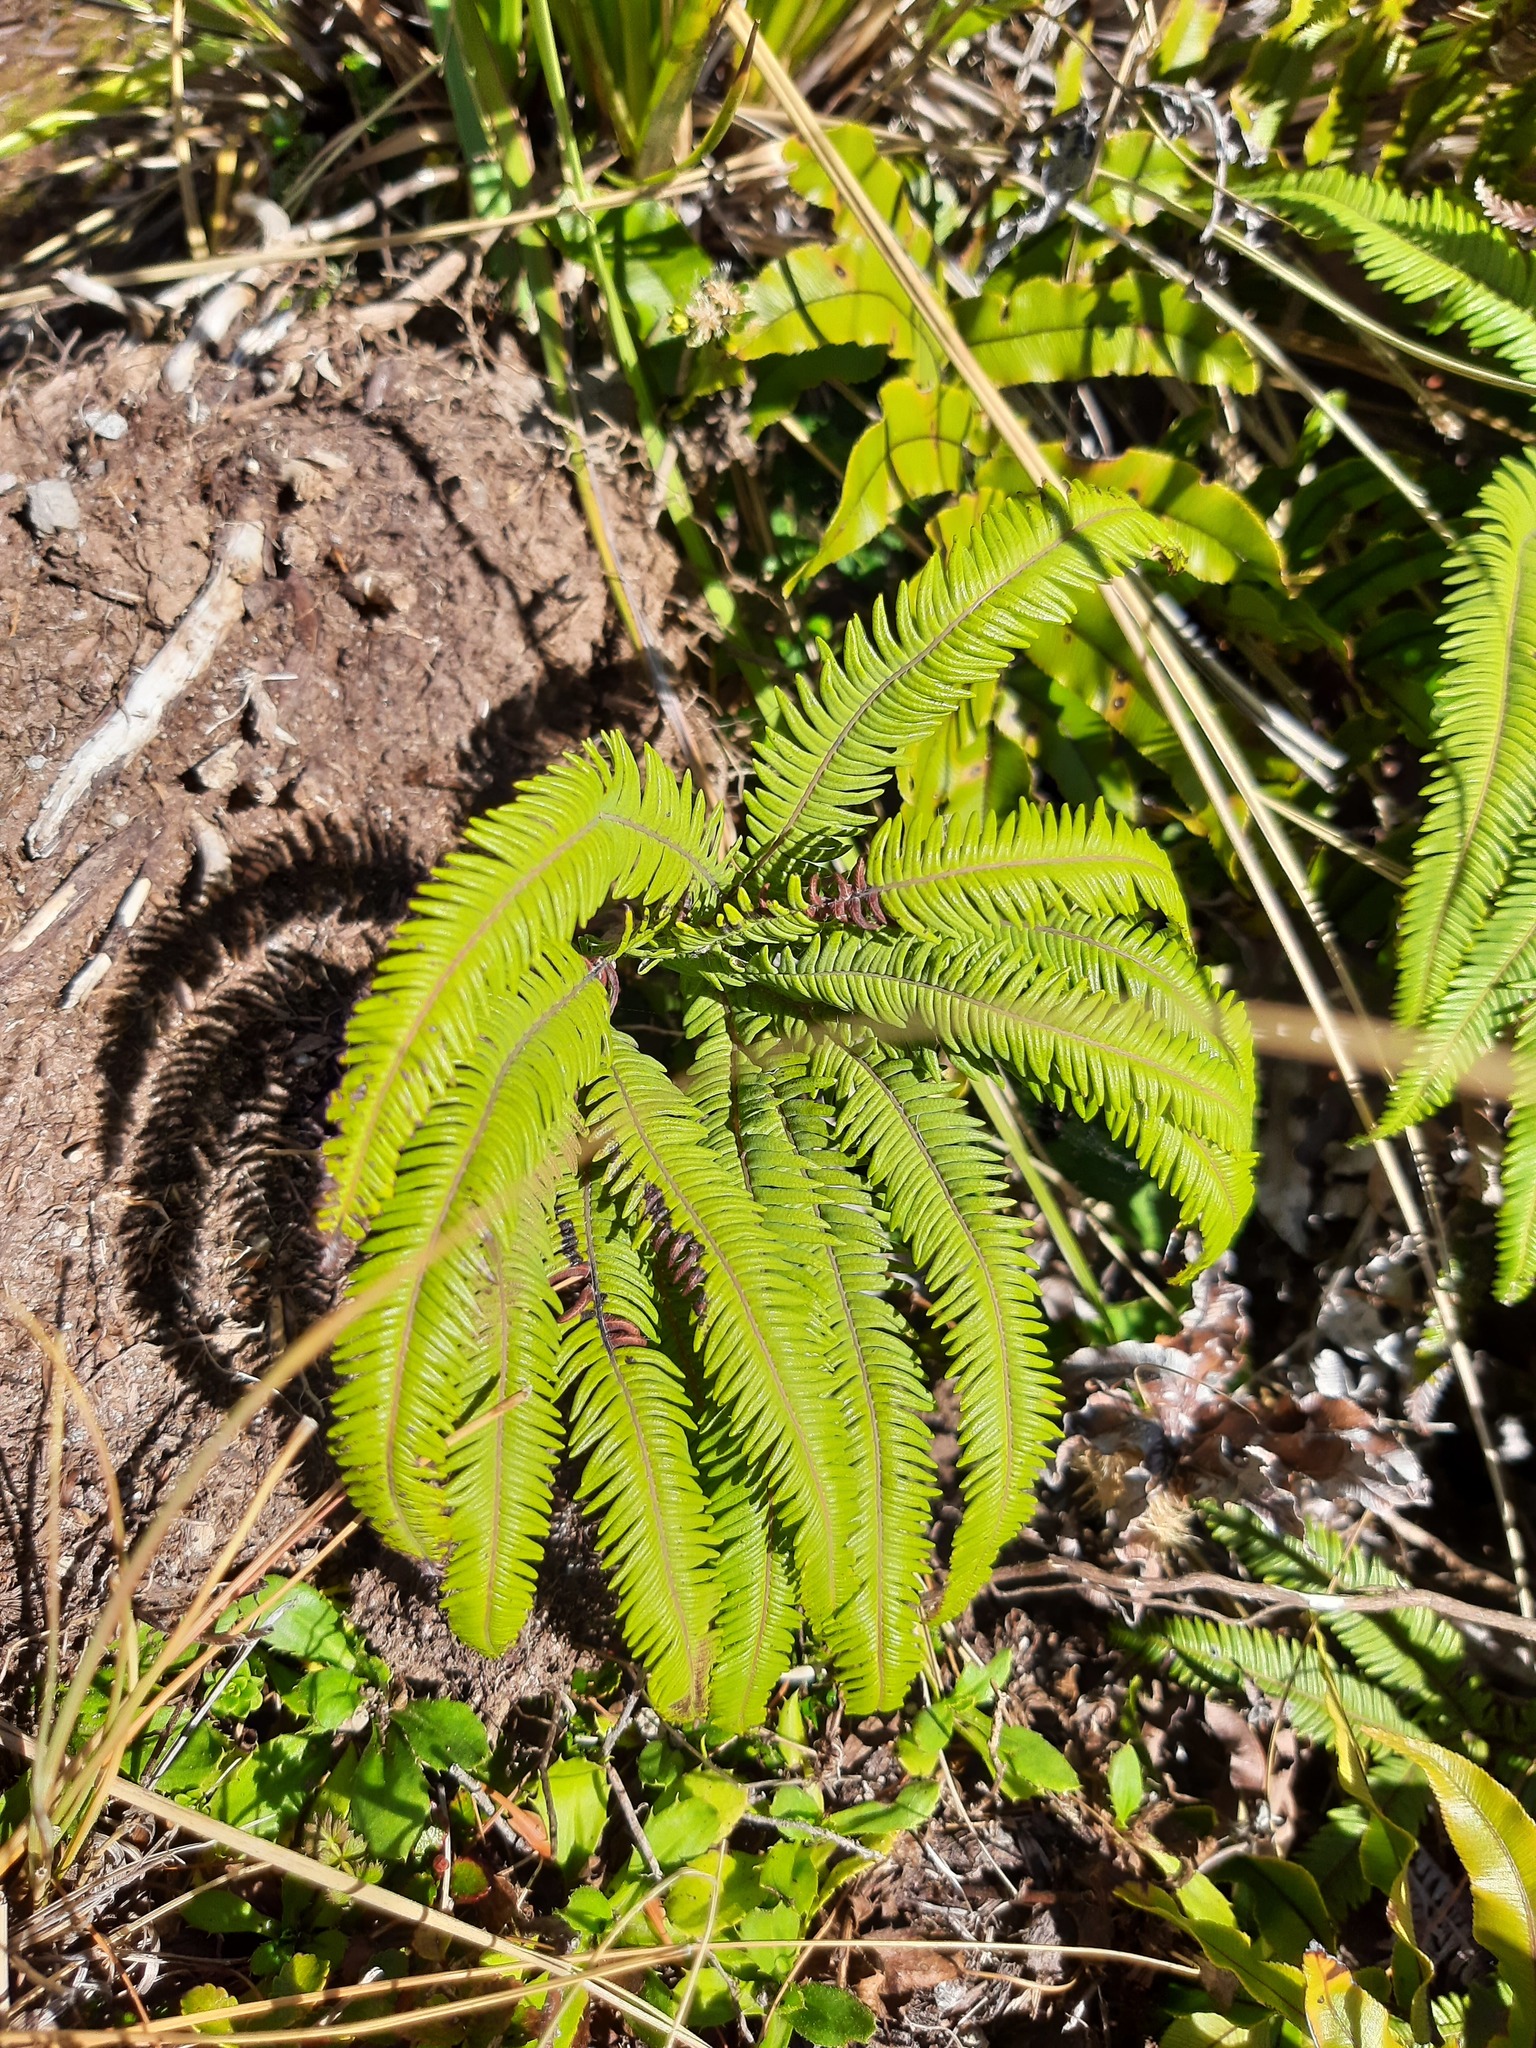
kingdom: Plantae
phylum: Tracheophyta
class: Polypodiopsida
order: Gleicheniales
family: Gleicheniaceae
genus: Sticherus
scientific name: Sticherus cunninghamii
